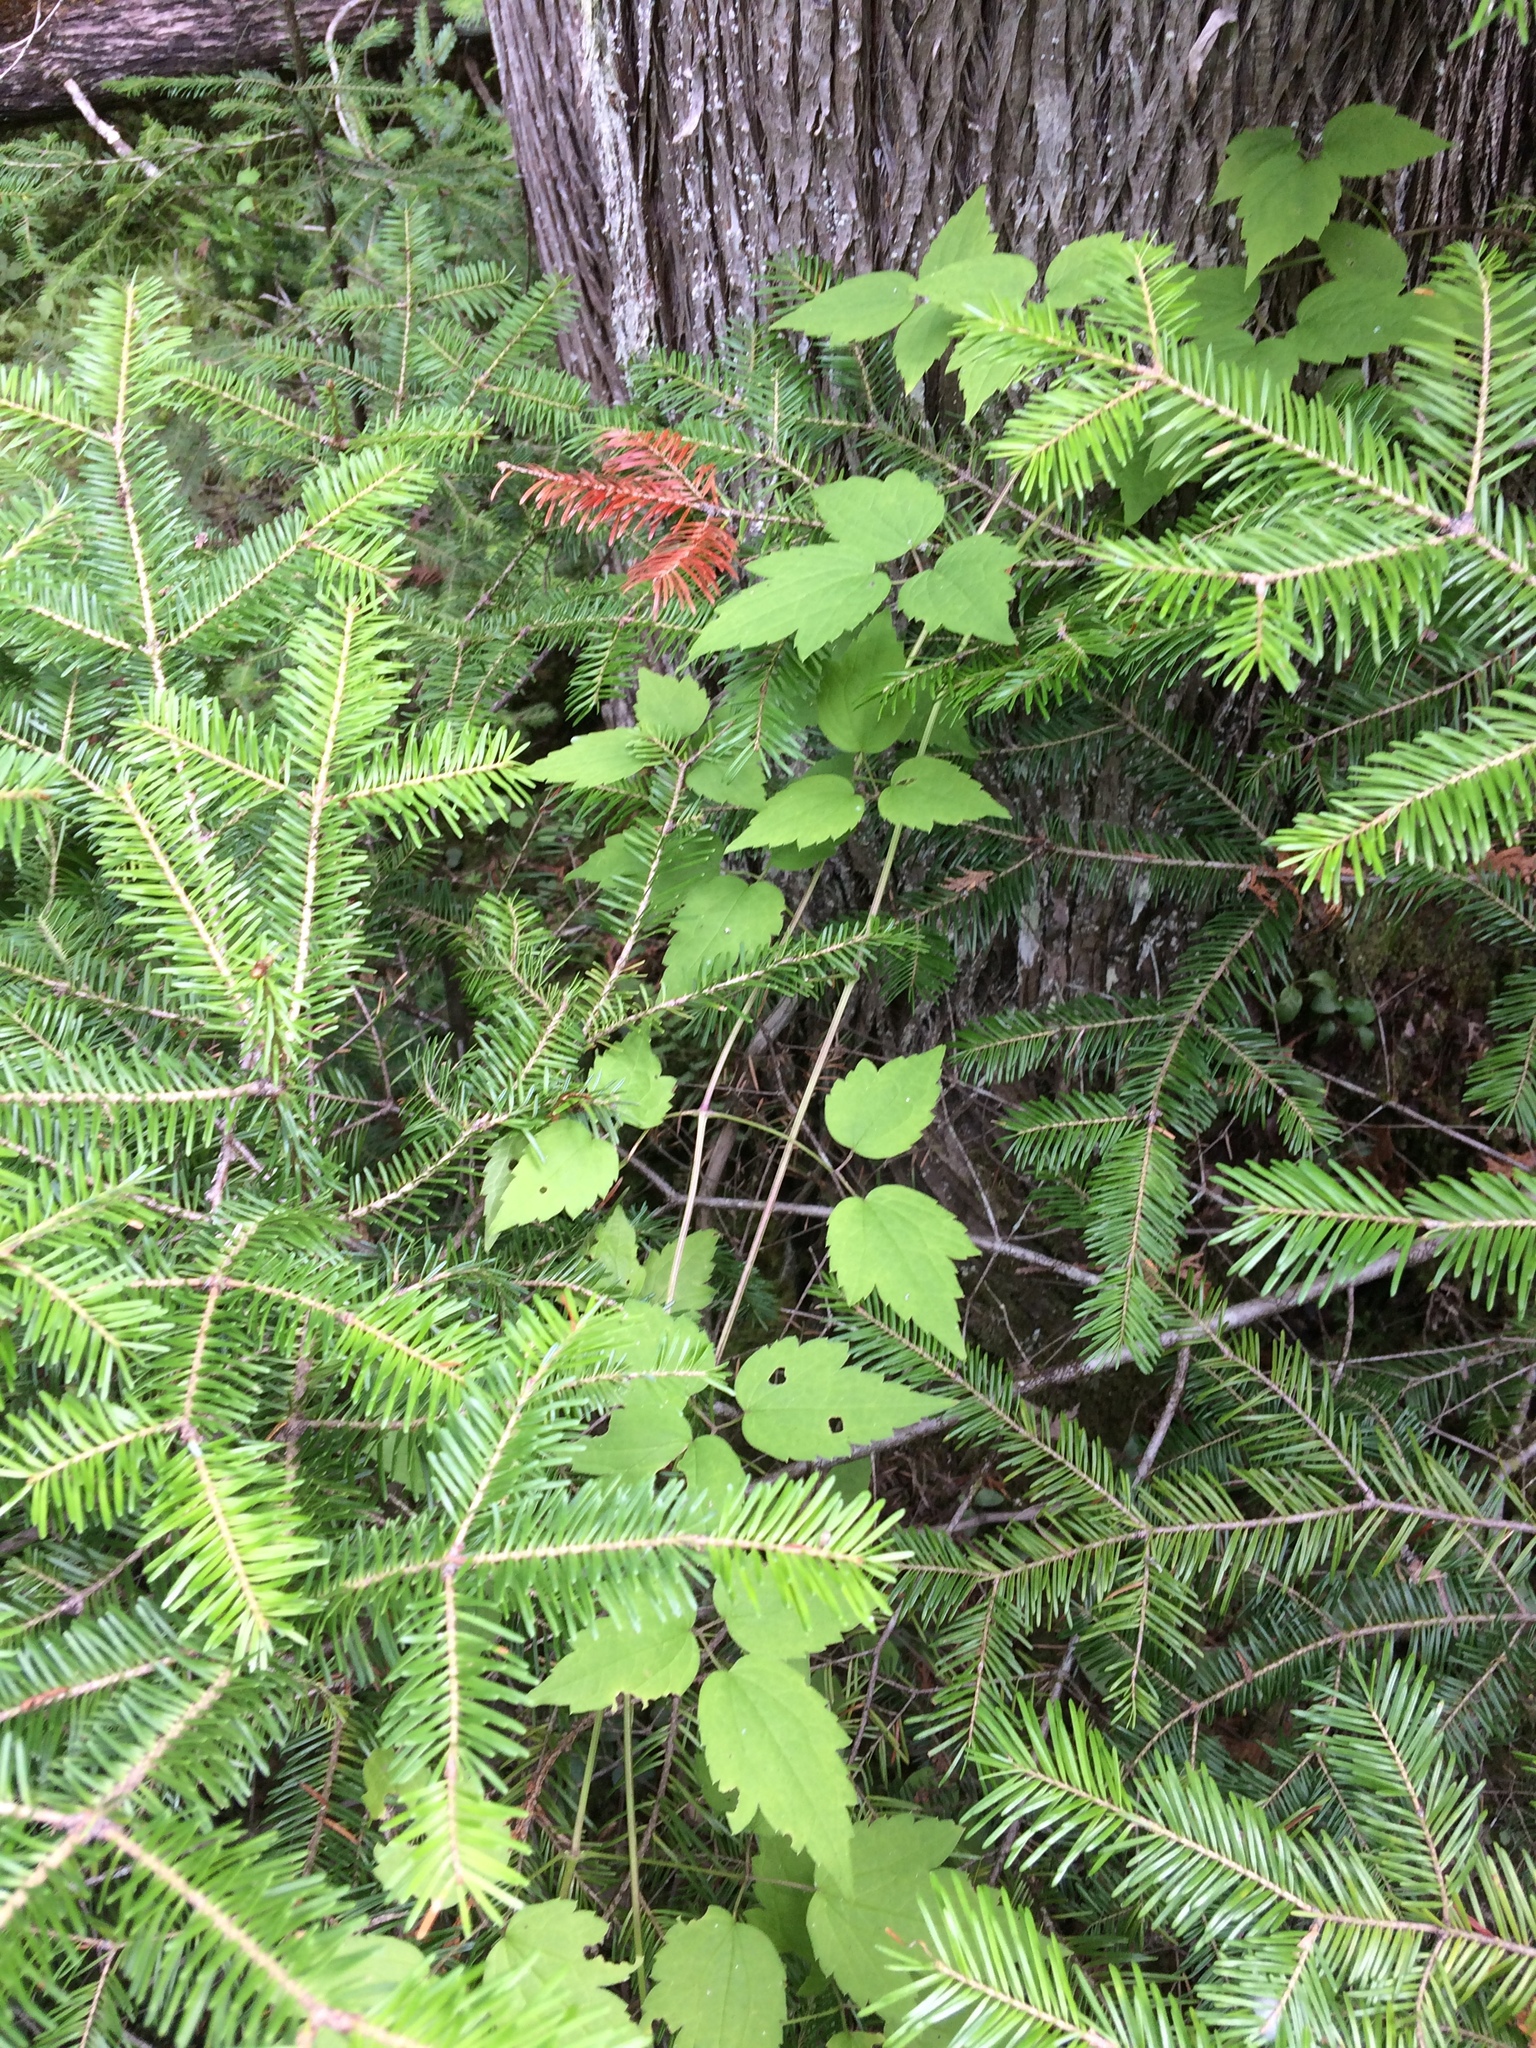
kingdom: Plantae
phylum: Tracheophyta
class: Magnoliopsida
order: Ranunculales
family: Ranunculaceae
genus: Clematis
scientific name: Clematis virginiana
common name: Virgin's-bower
